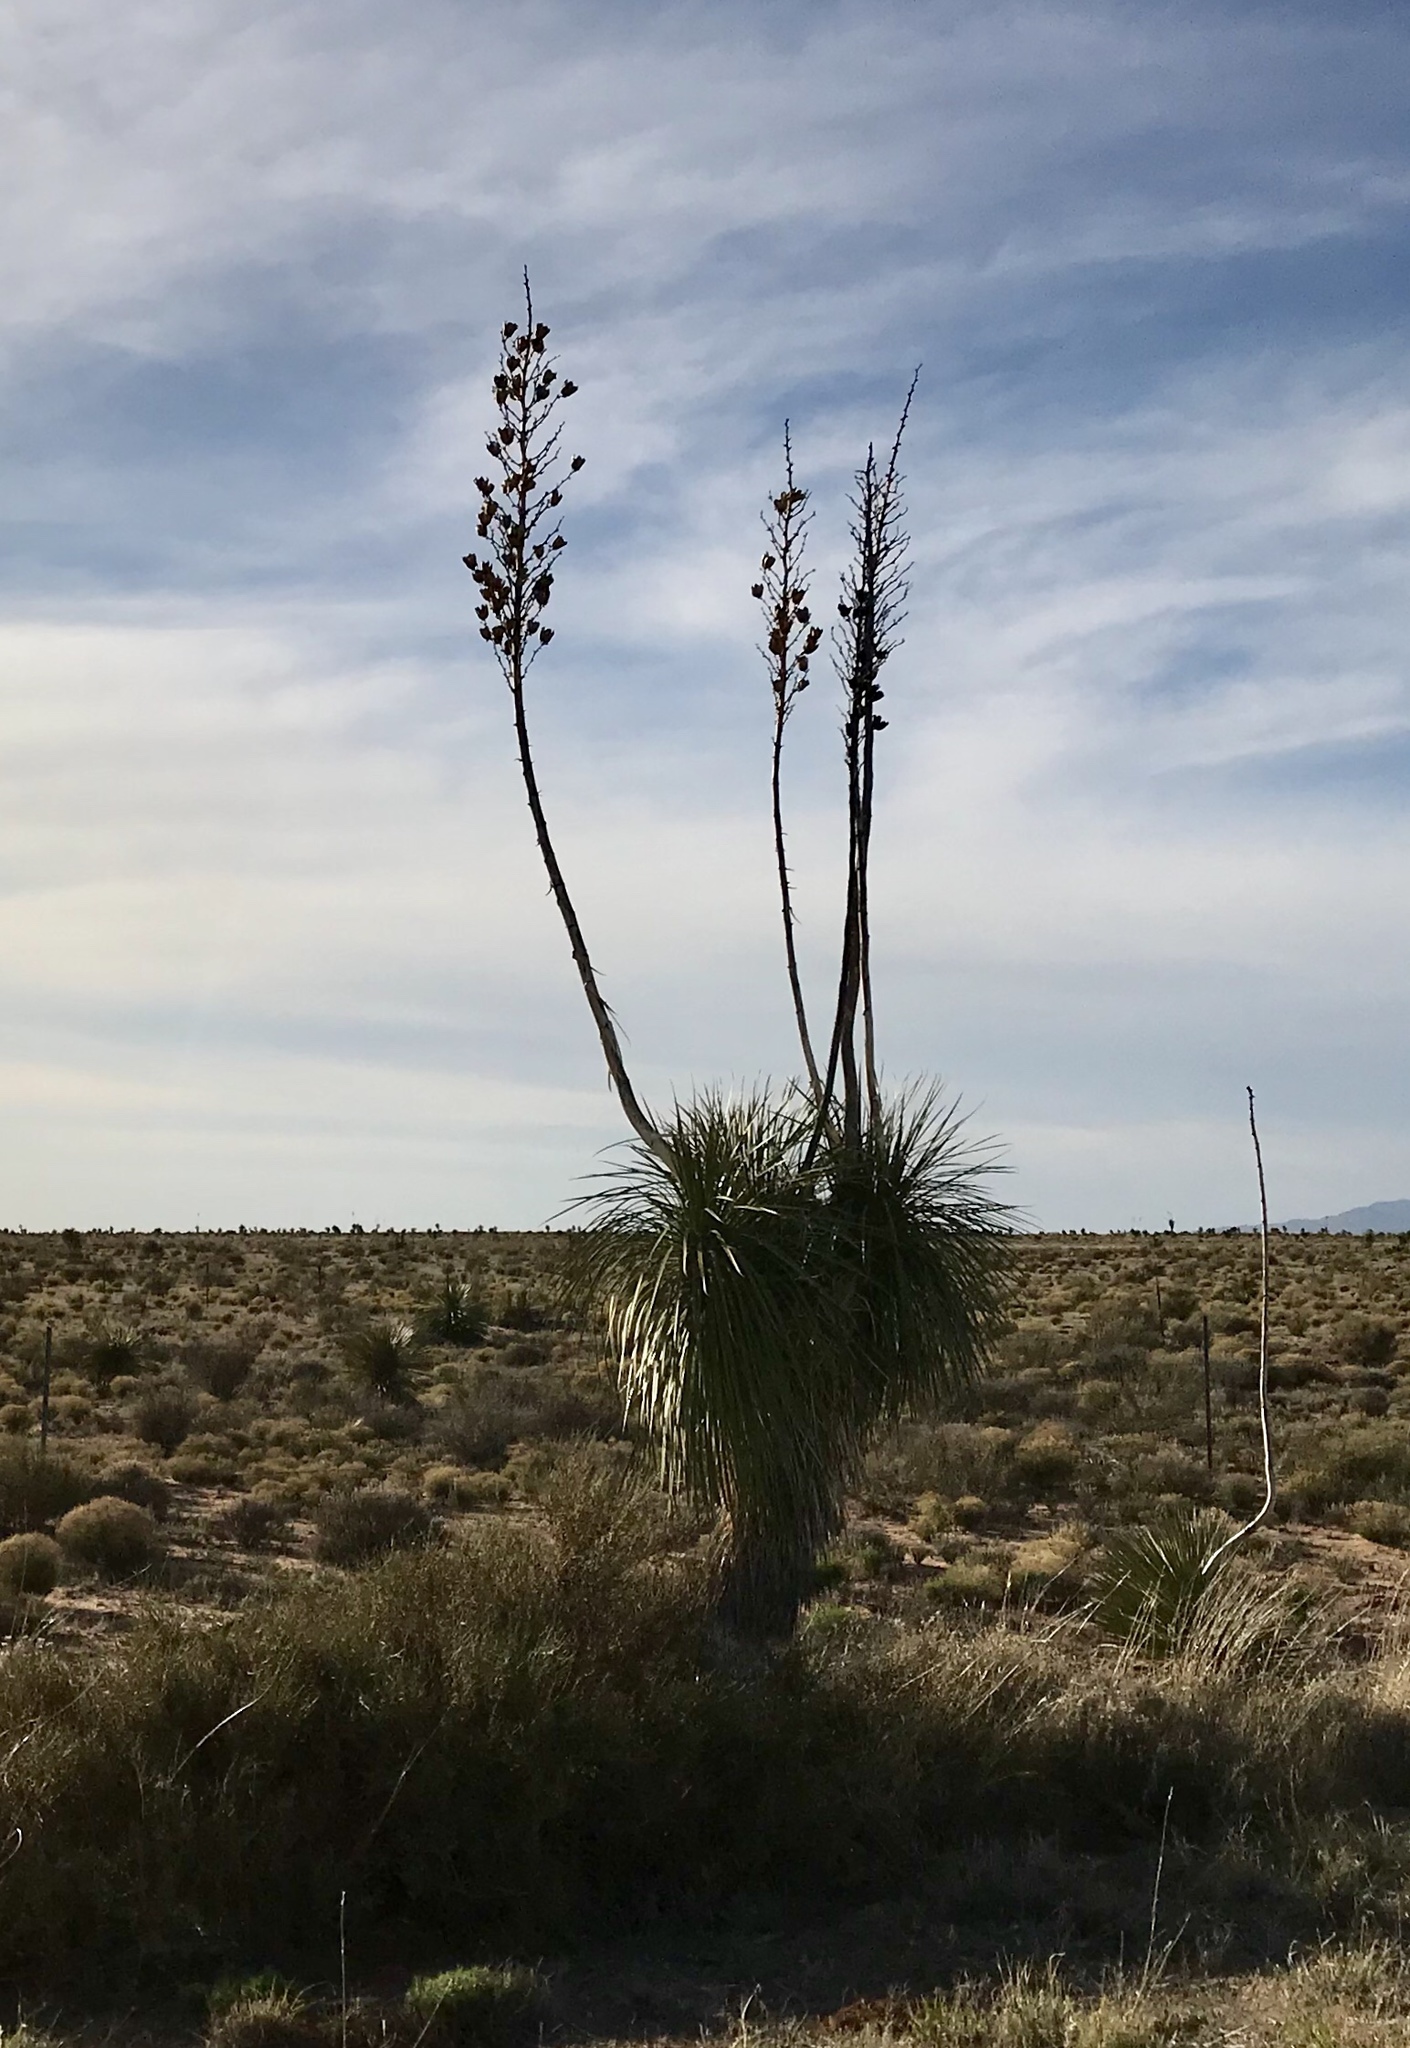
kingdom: Plantae
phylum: Tracheophyta
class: Liliopsida
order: Asparagales
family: Asparagaceae
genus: Yucca
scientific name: Yucca elata
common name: Palmella
